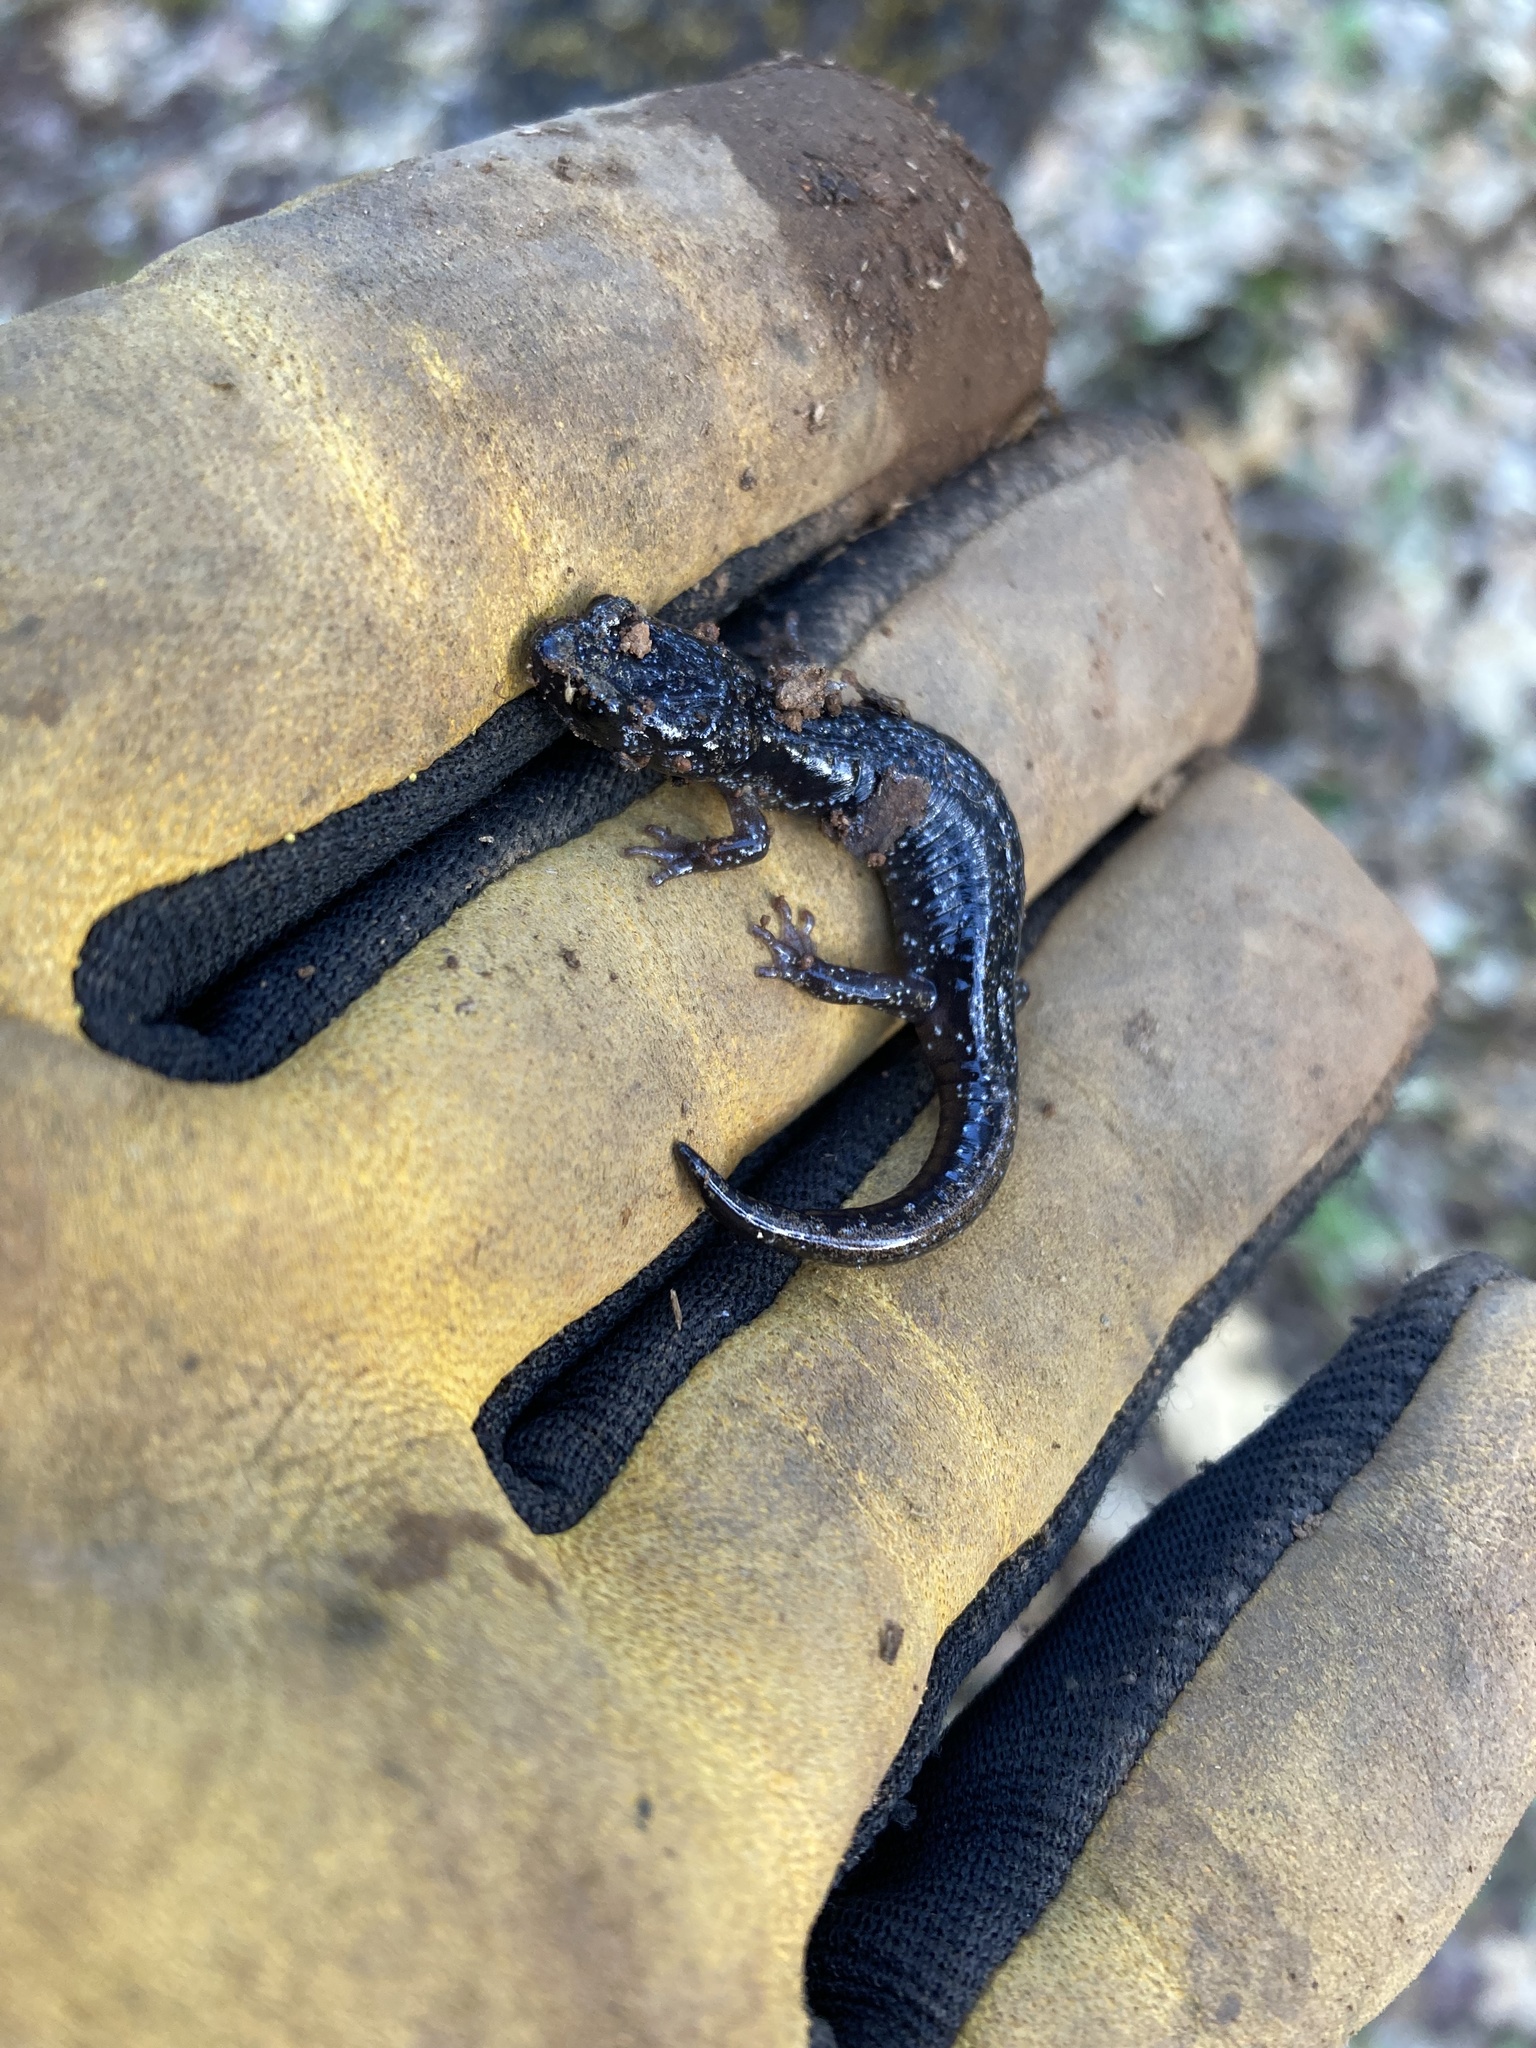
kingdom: Animalia
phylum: Chordata
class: Amphibia
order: Caudata
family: Plethodontidae
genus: Aneides
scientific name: Aneides ferreus
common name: Clouded salamander
